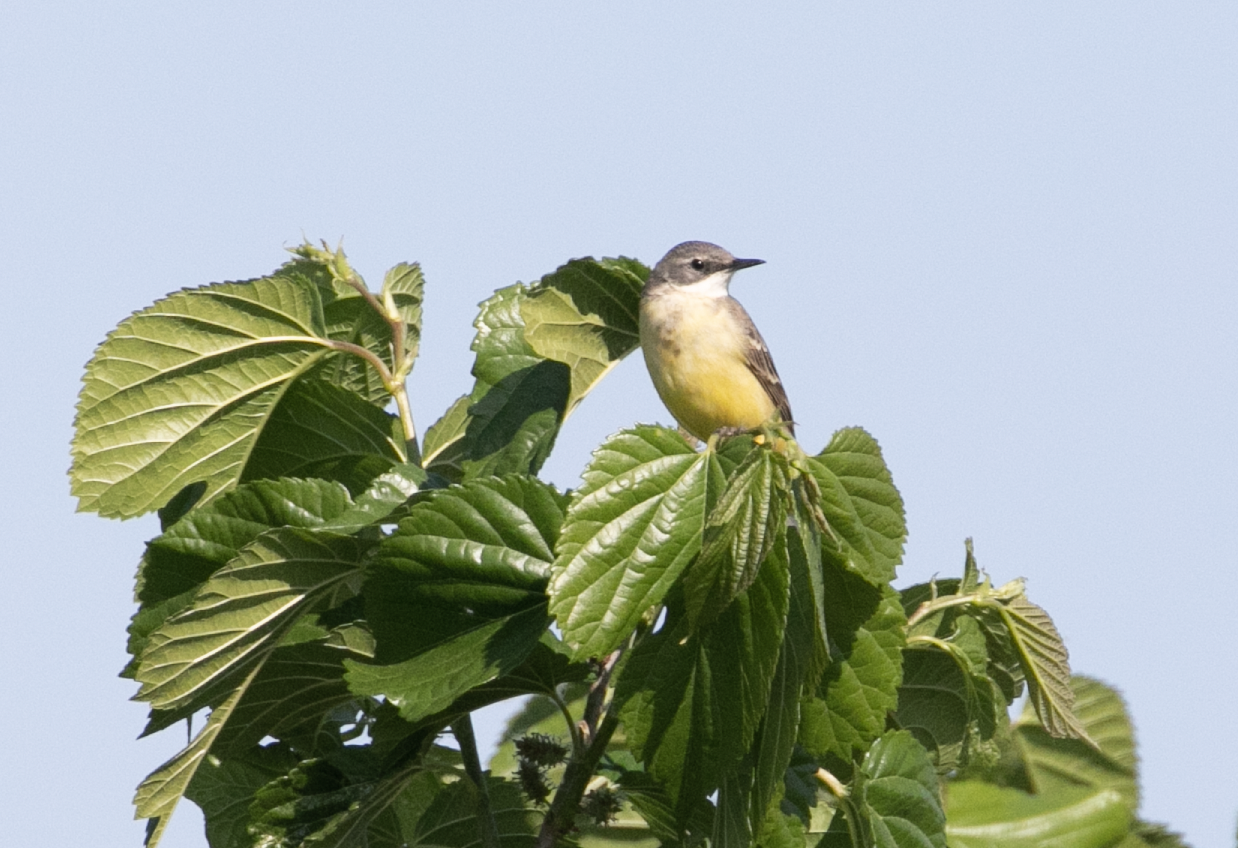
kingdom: Animalia
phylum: Chordata
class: Aves
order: Passeriformes
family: Motacillidae
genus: Motacilla
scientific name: Motacilla flava
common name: Western yellow wagtail
